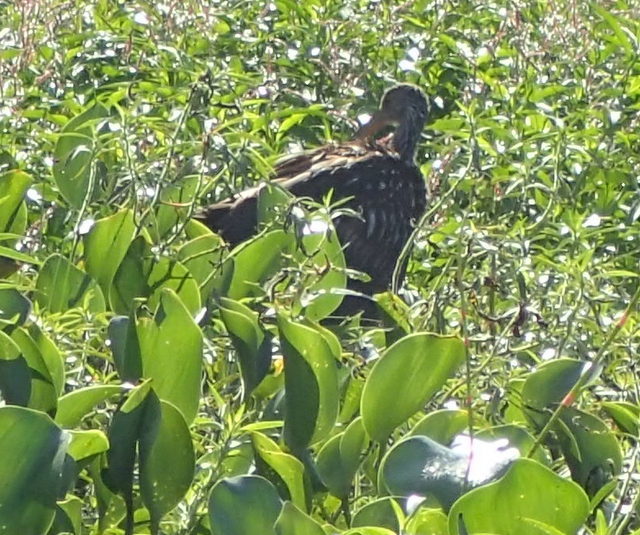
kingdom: Animalia
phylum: Chordata
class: Aves
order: Gruiformes
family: Aramidae
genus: Aramus
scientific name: Aramus guarauna
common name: Limpkin
